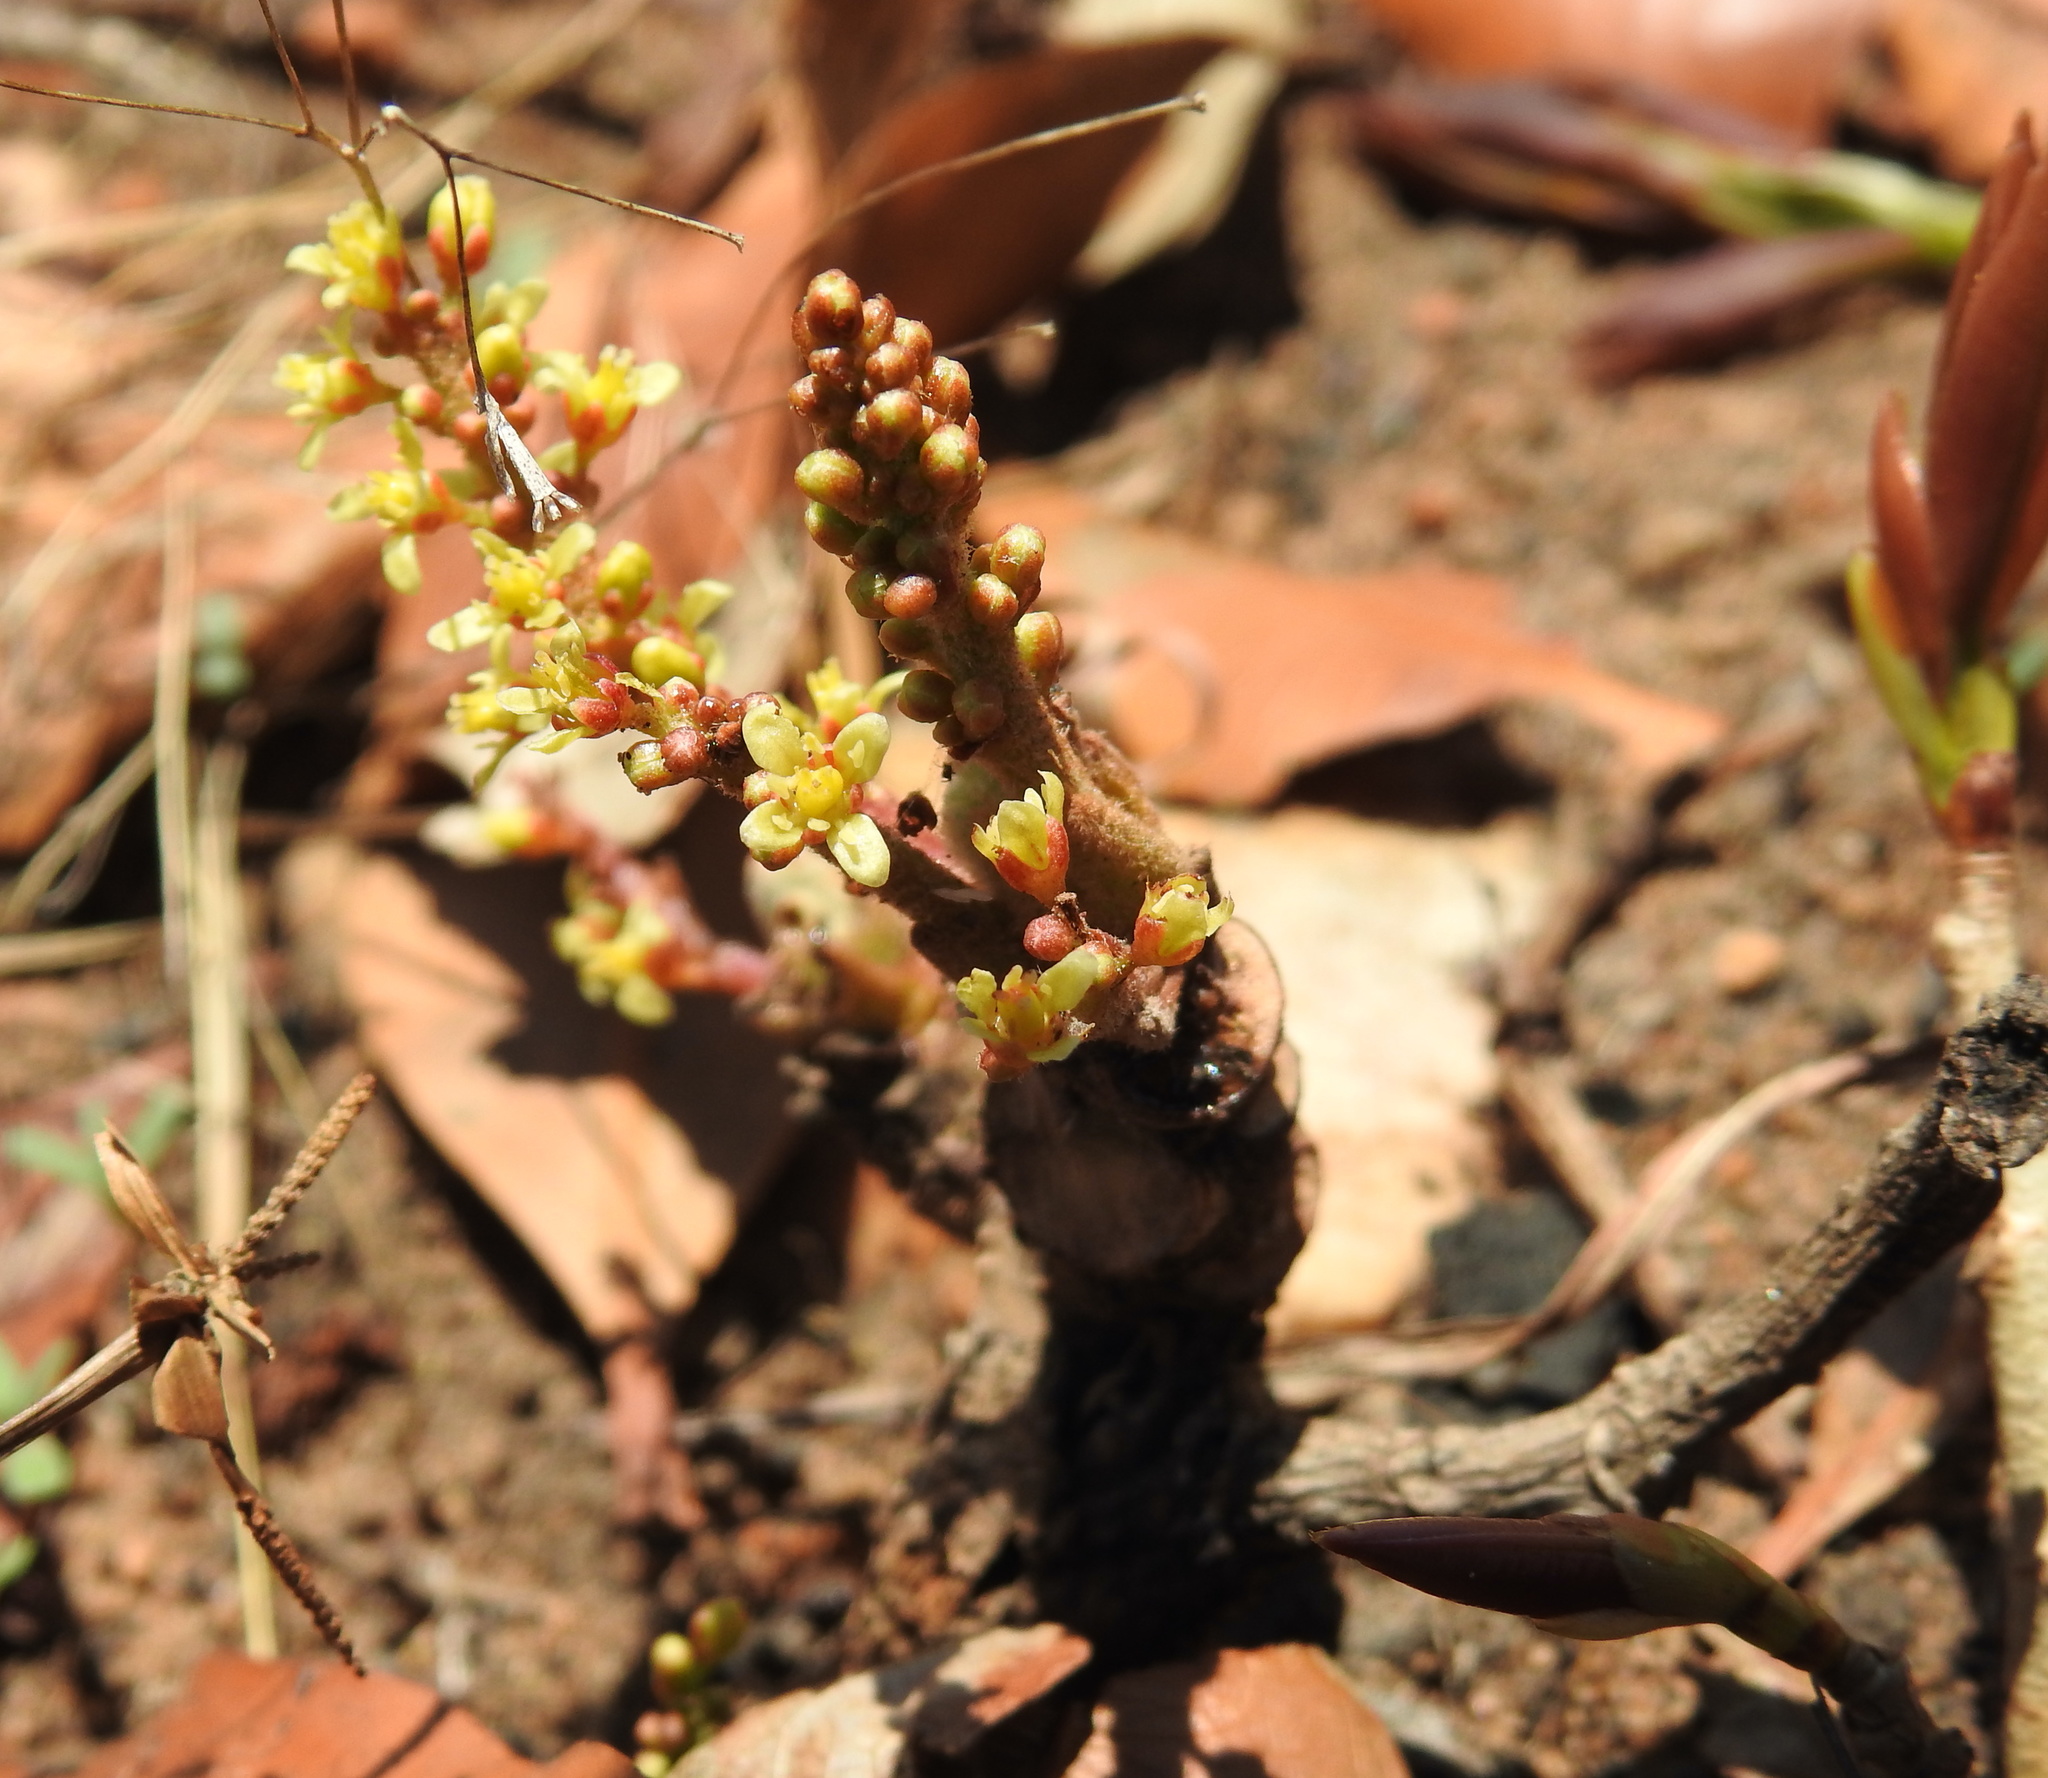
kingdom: Plantae
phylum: Tracheophyta
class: Magnoliopsida
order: Sapindales
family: Anacardiaceae
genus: Lannea
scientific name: Lannea edulis
